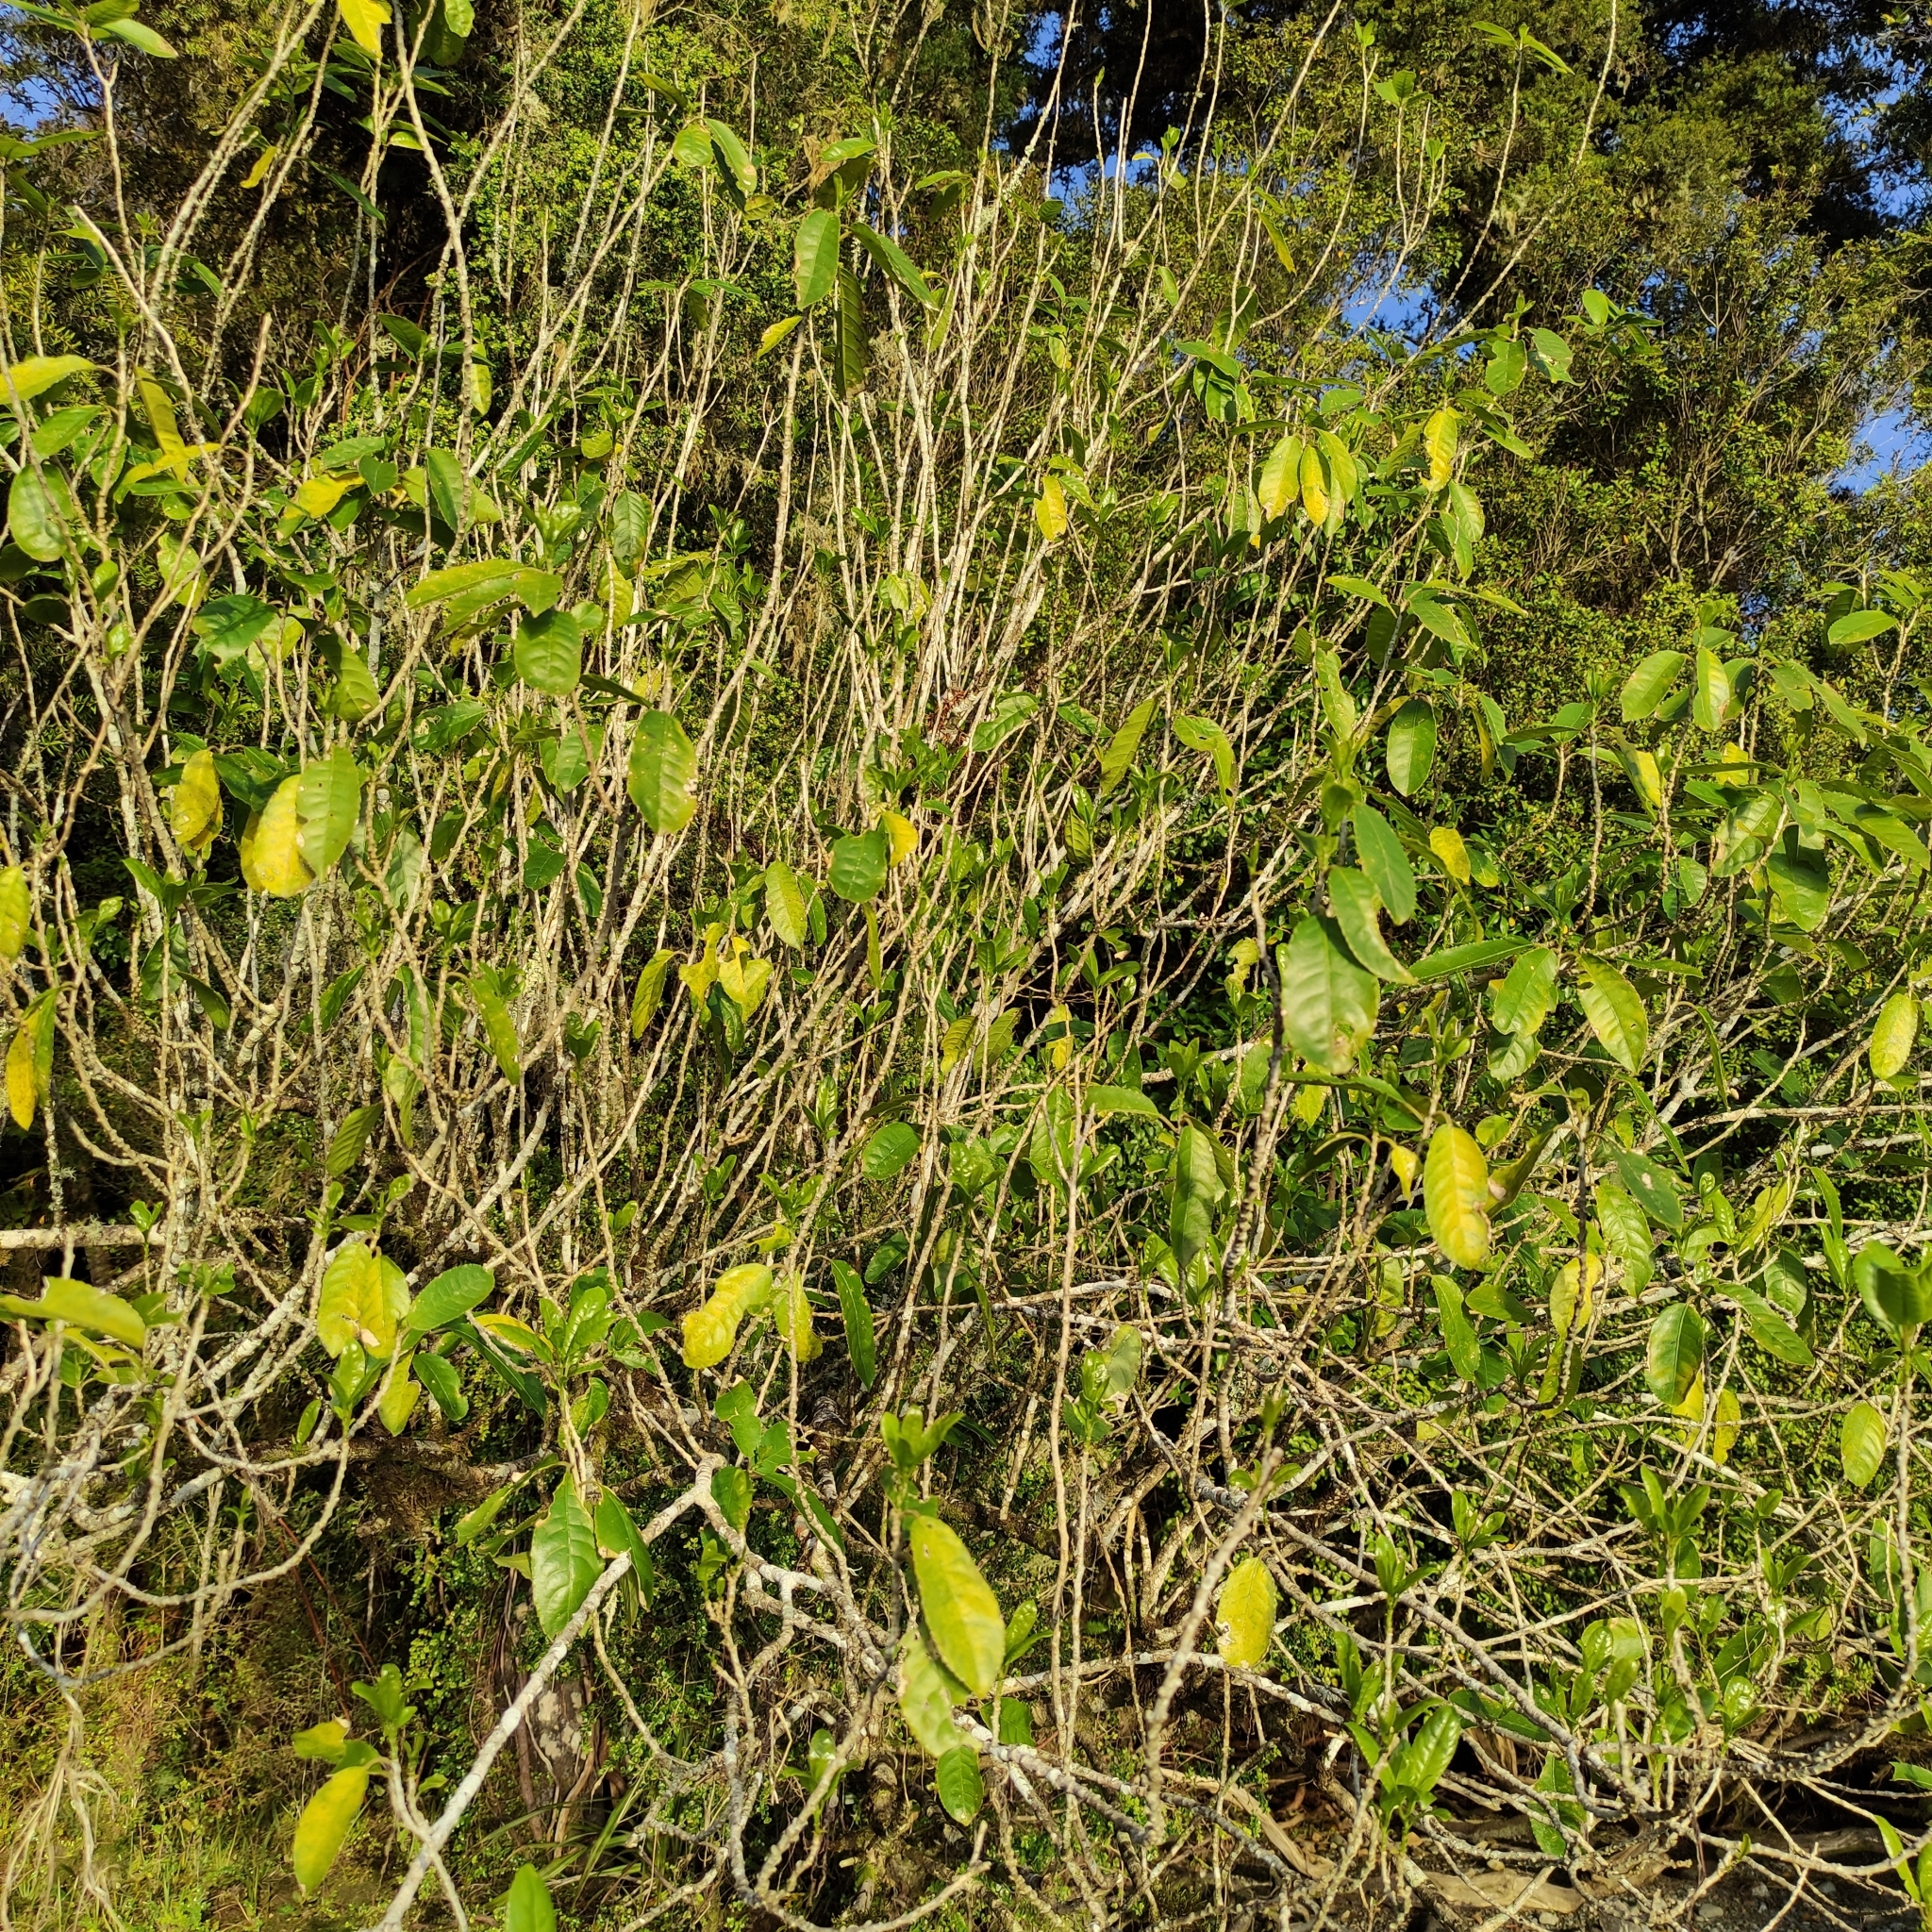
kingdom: Plantae
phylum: Tracheophyta
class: Magnoliopsida
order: Malpighiales
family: Violaceae
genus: Melicytus
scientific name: Melicytus ramiflorus
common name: Mahoe
